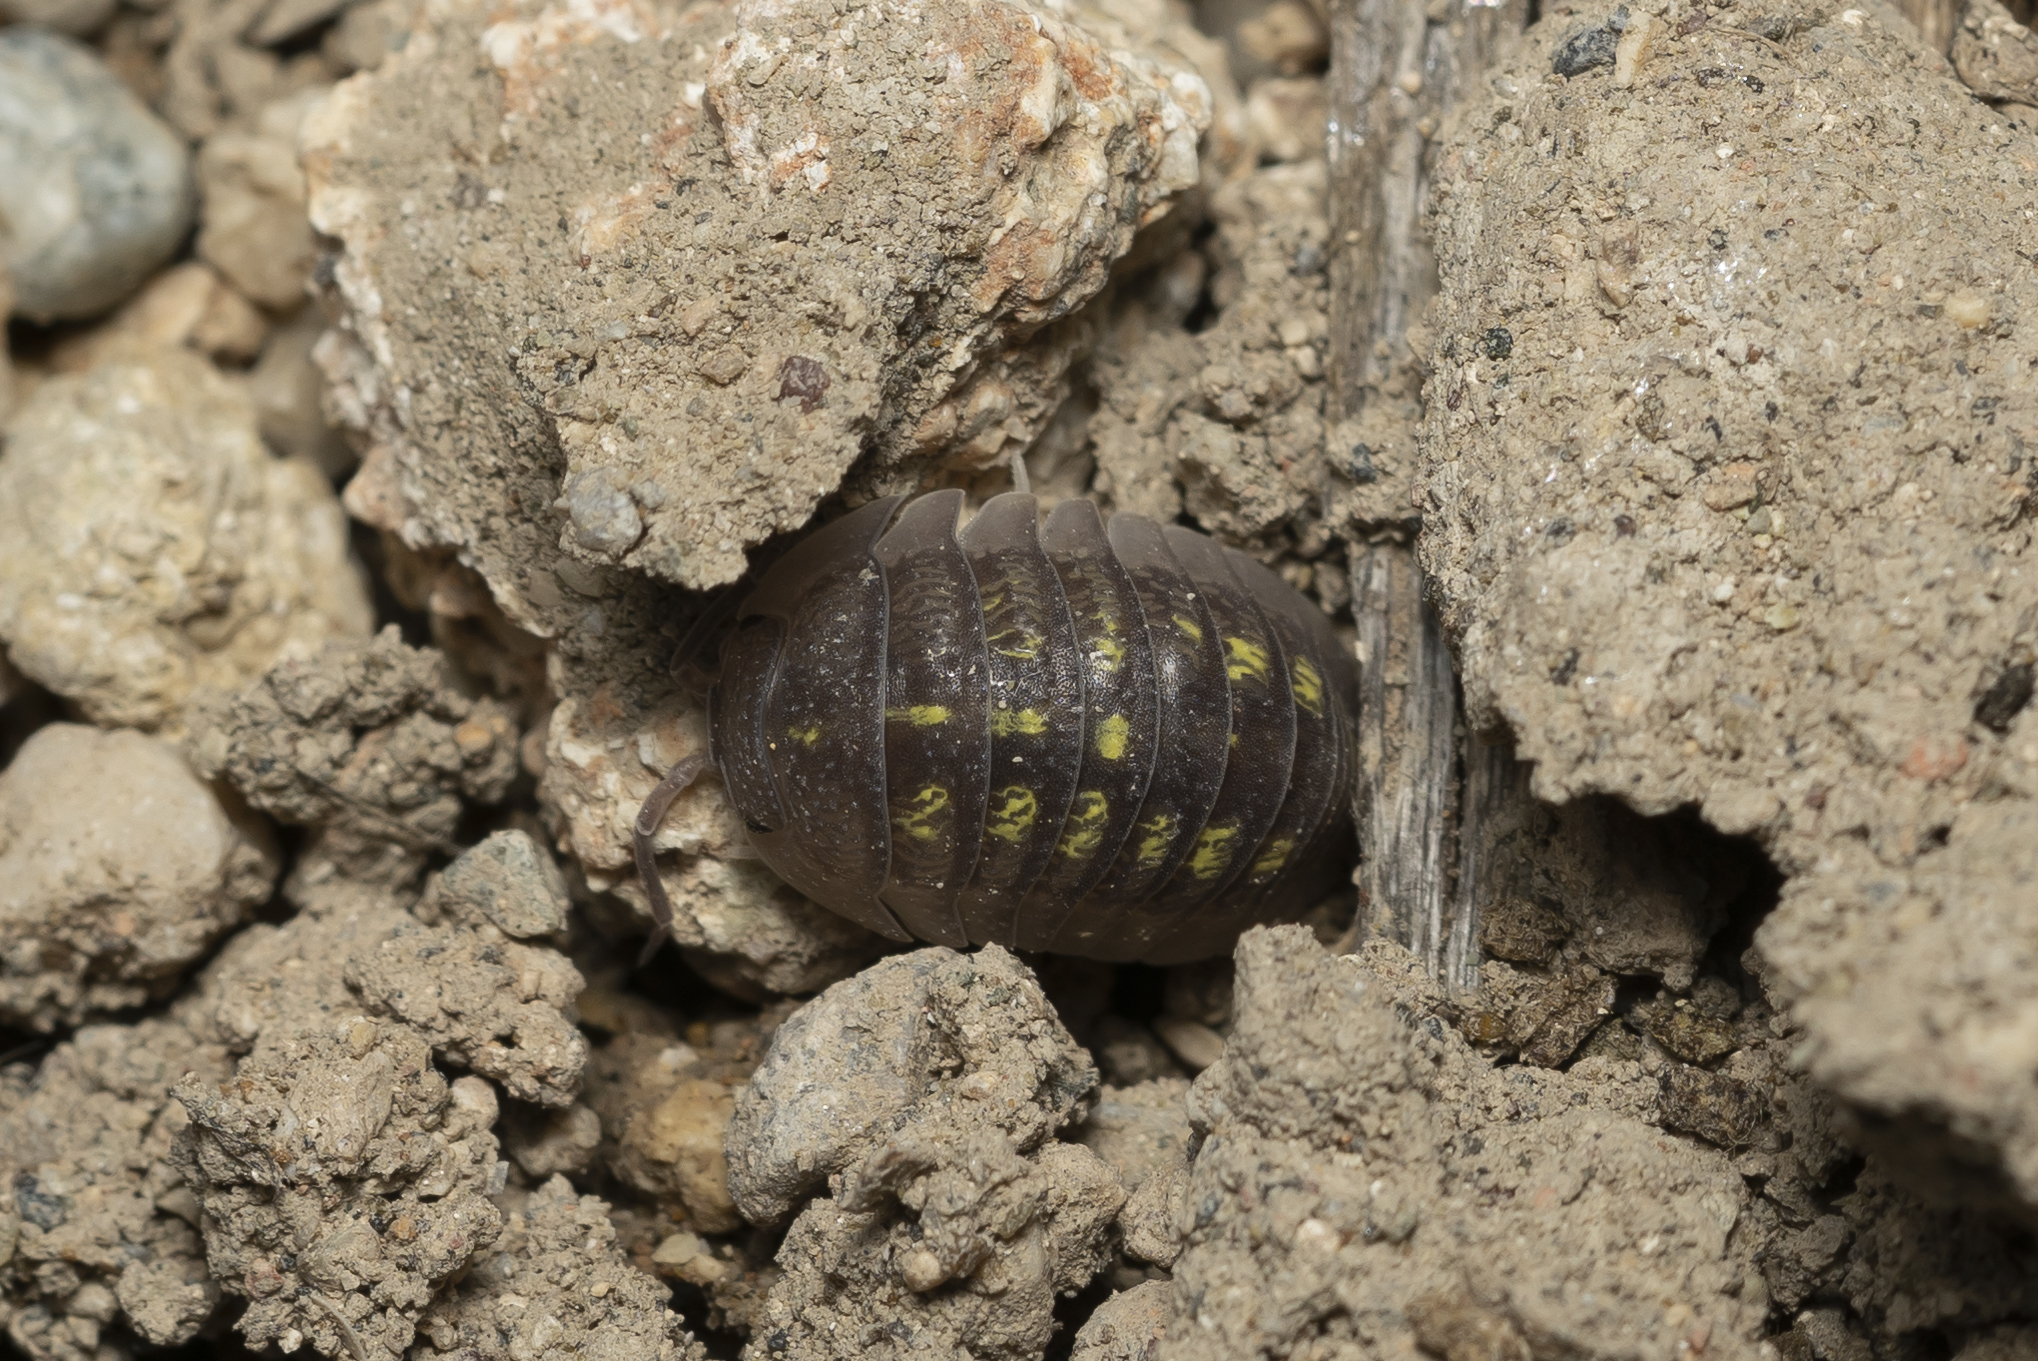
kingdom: Animalia
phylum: Arthropoda
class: Malacostraca
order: Isopoda
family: Armadillidiidae
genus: Armadillidium
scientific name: Armadillidium granulatum
